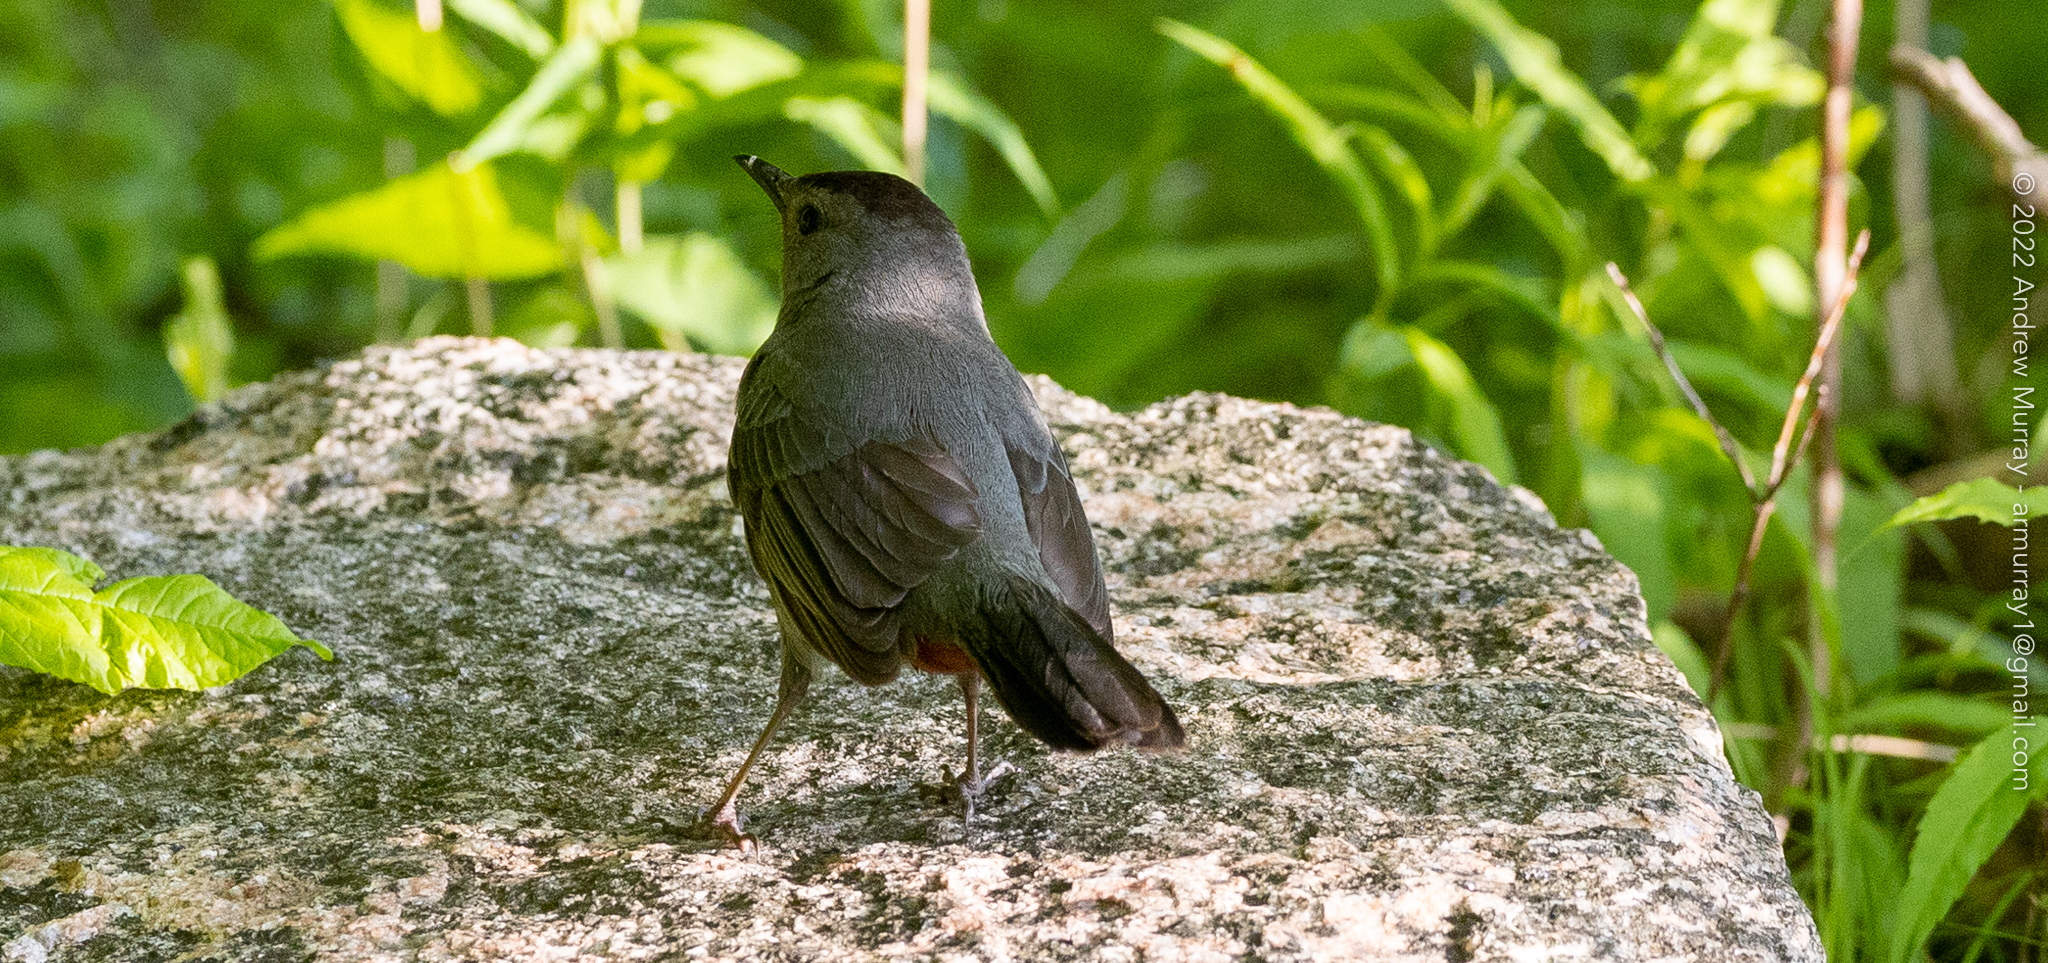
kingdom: Animalia
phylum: Chordata
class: Aves
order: Passeriformes
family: Mimidae
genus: Dumetella
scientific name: Dumetella carolinensis
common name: Gray catbird
